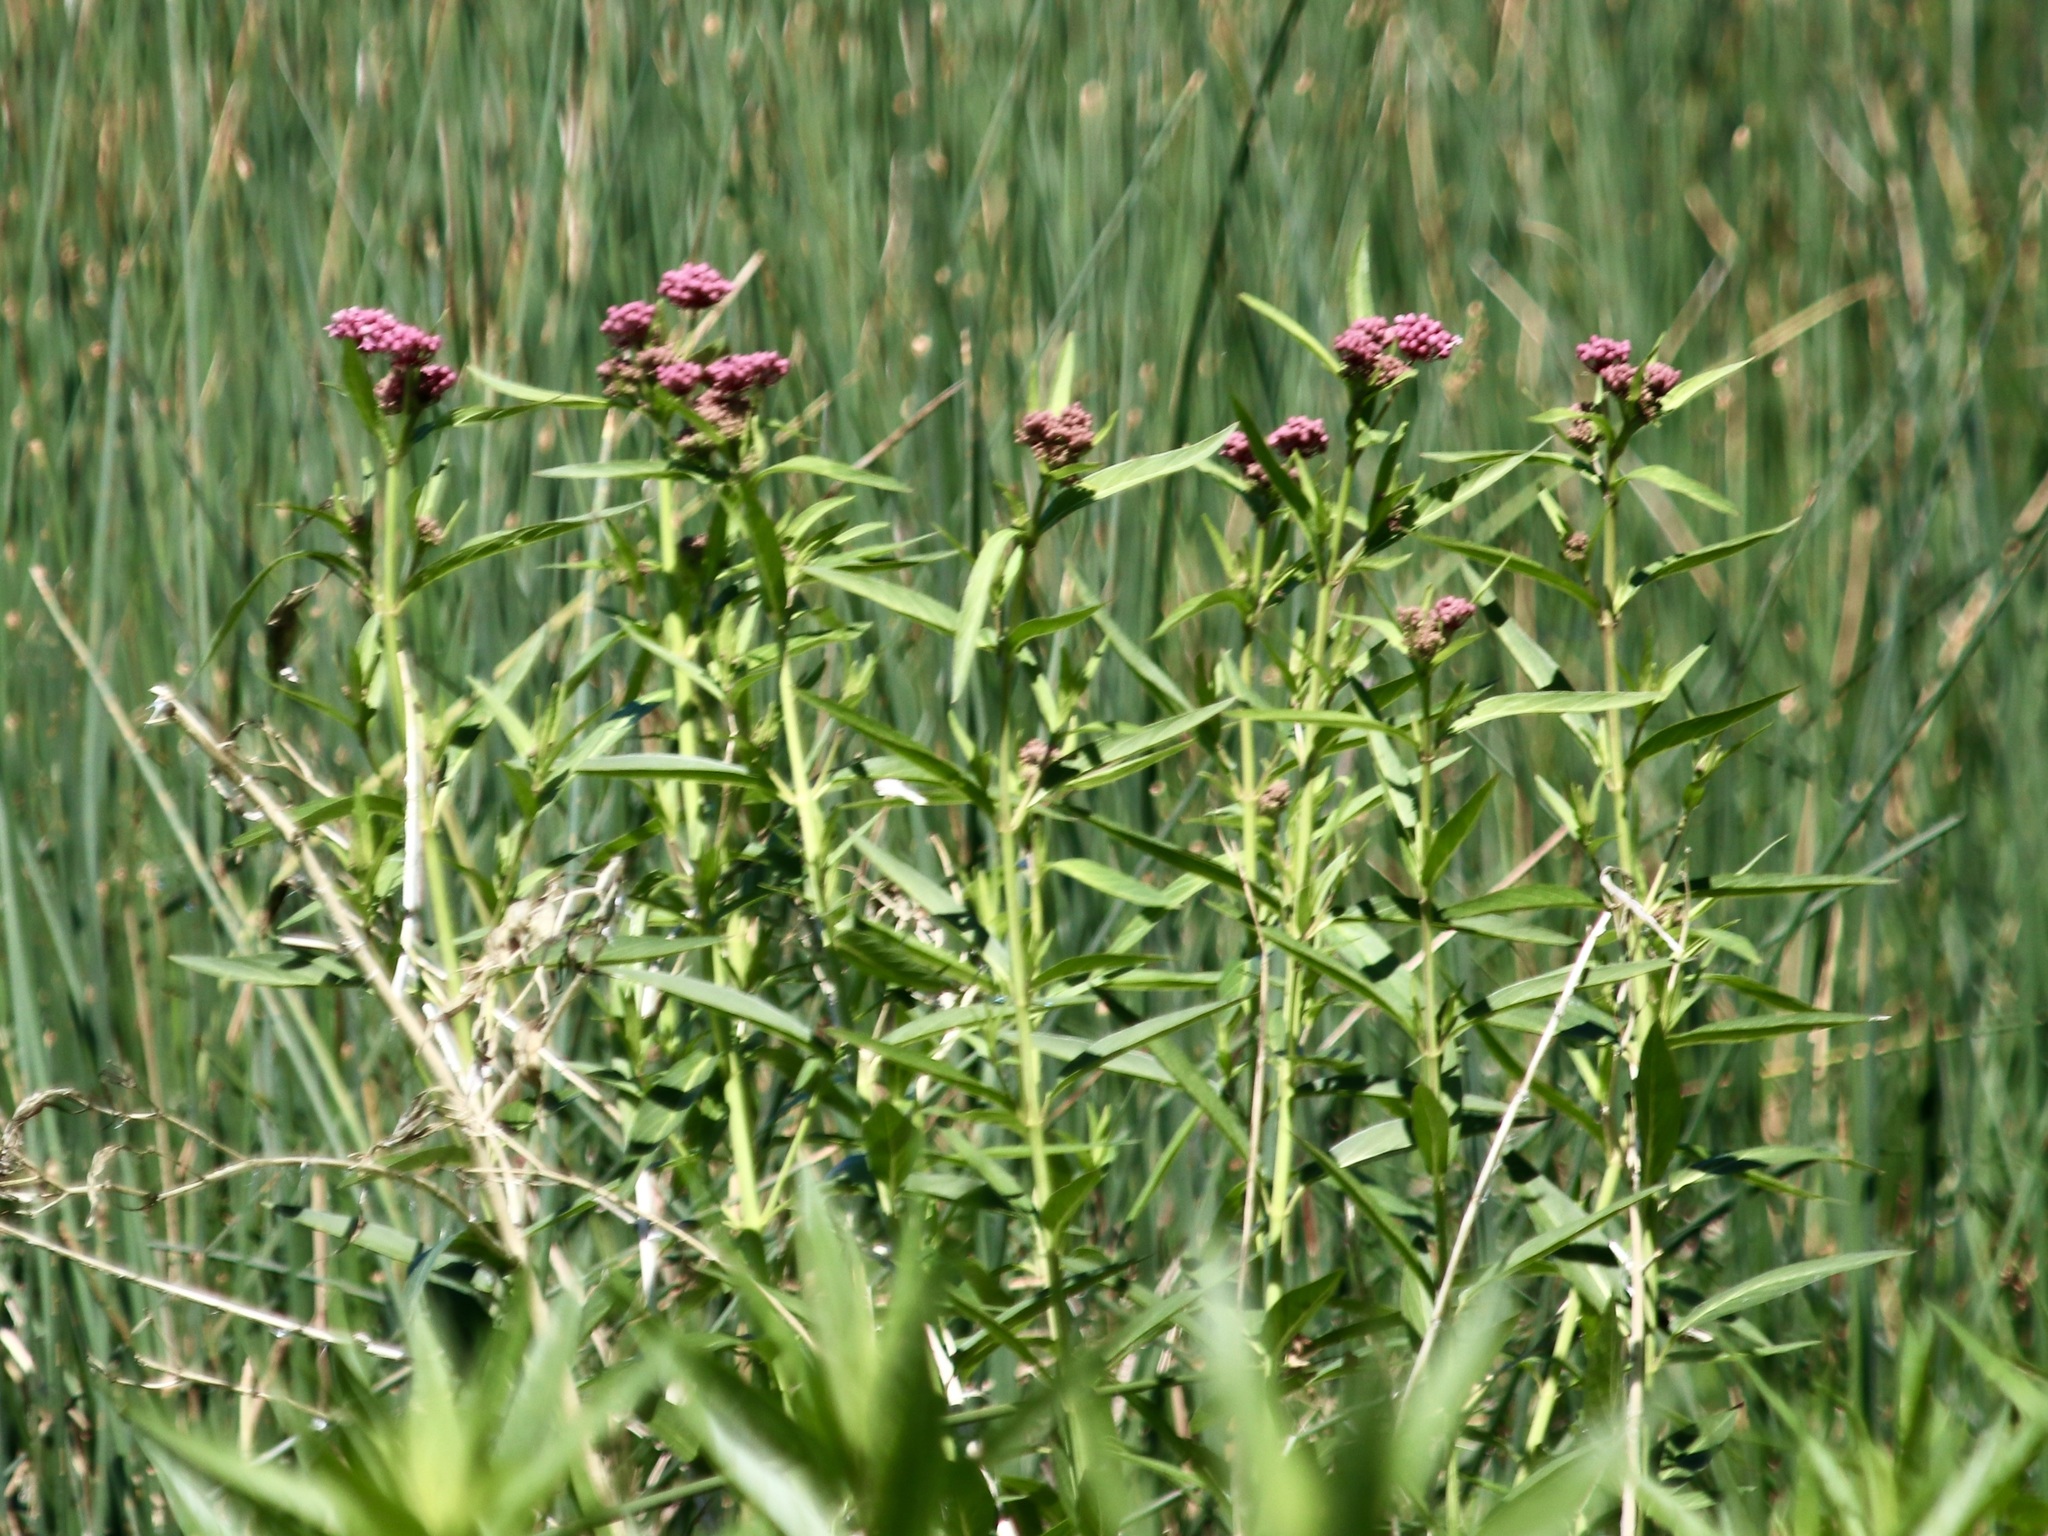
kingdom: Plantae
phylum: Tracheophyta
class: Magnoliopsida
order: Gentianales
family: Apocynaceae
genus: Asclepias
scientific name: Asclepias incarnata
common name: Swamp milkweed
